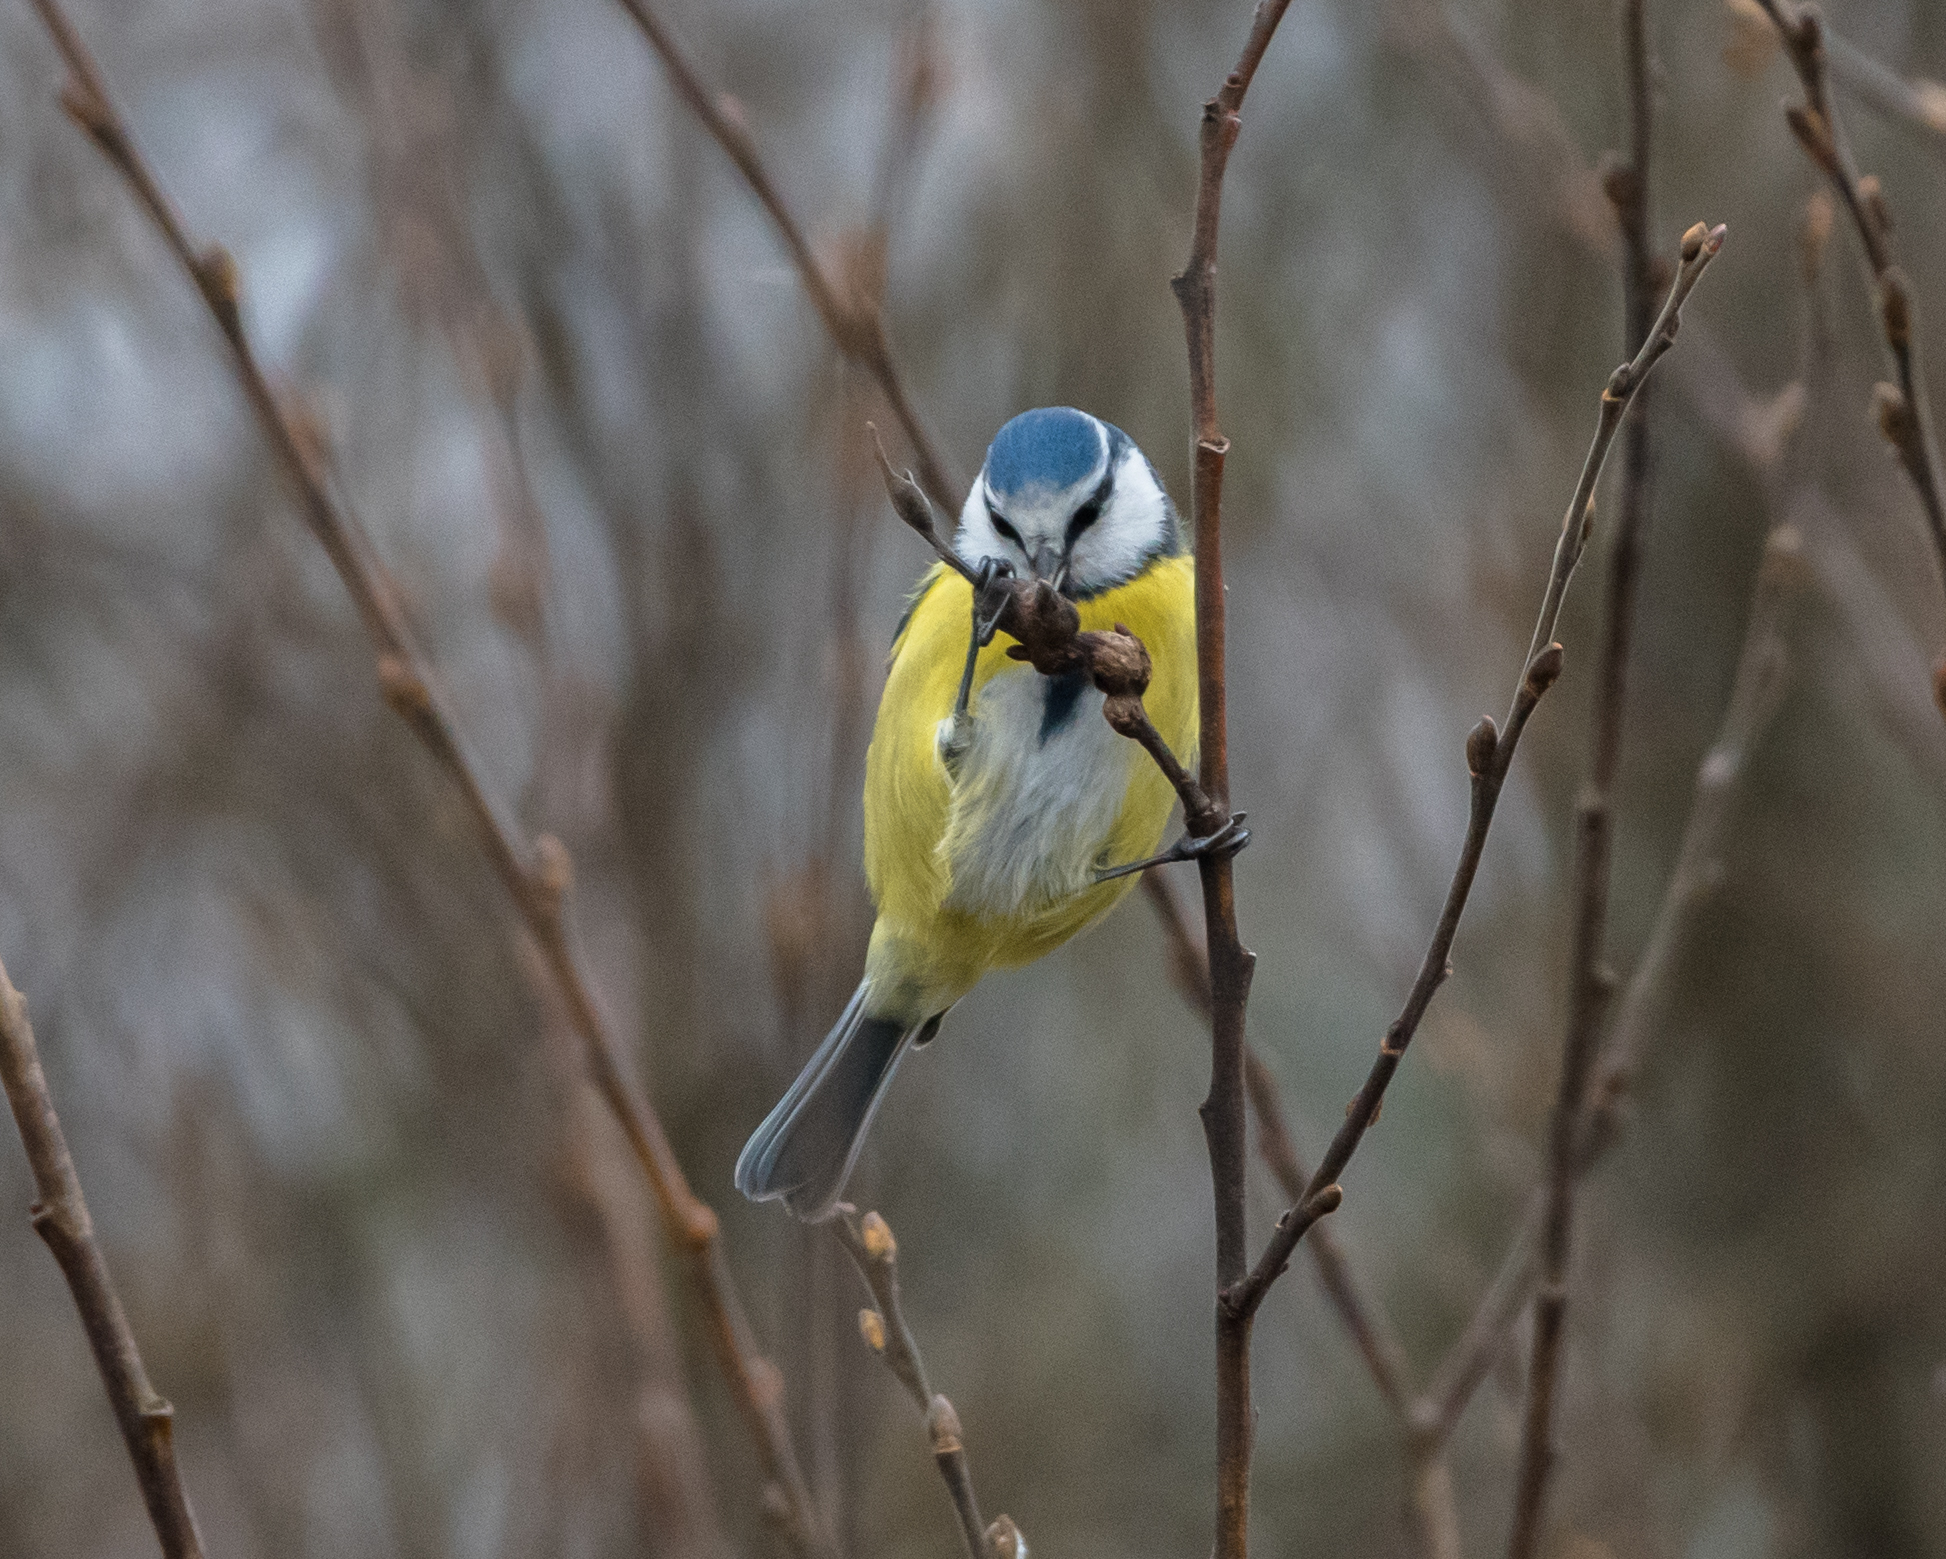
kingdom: Animalia
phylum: Chordata
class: Aves
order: Passeriformes
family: Paridae
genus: Cyanistes
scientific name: Cyanistes caeruleus
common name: Eurasian blue tit
